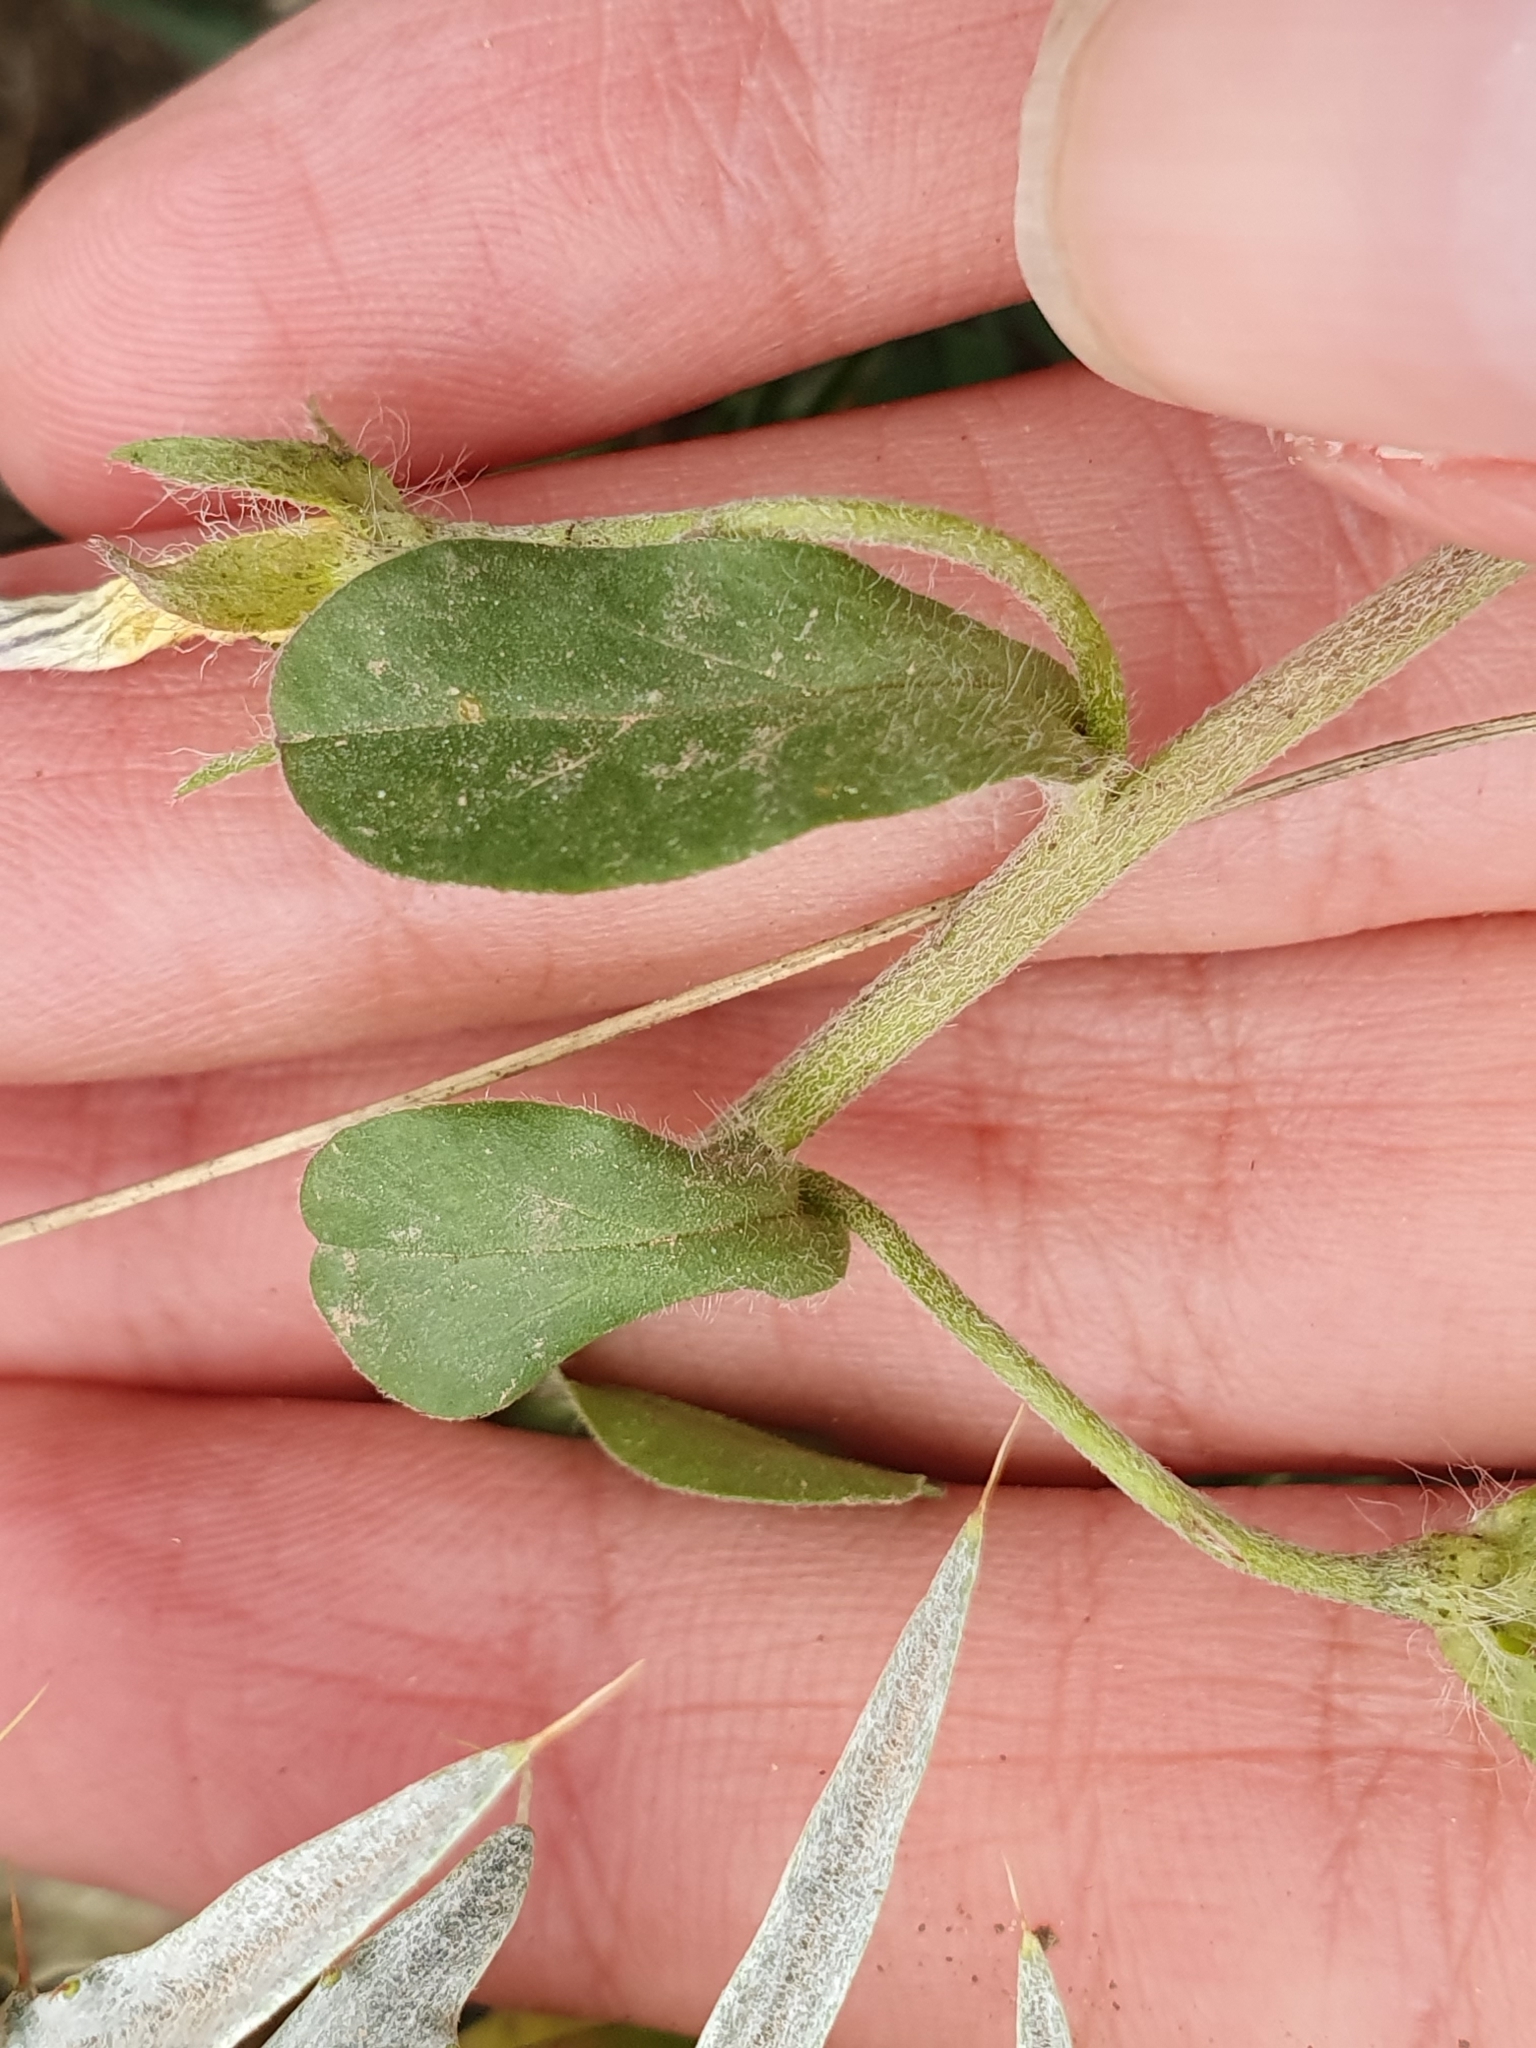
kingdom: Plantae
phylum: Tracheophyta
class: Magnoliopsida
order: Solanales
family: Convolvulaceae
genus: Convolvulus
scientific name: Convolvulus tricolor
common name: Dwarf morning-glory
